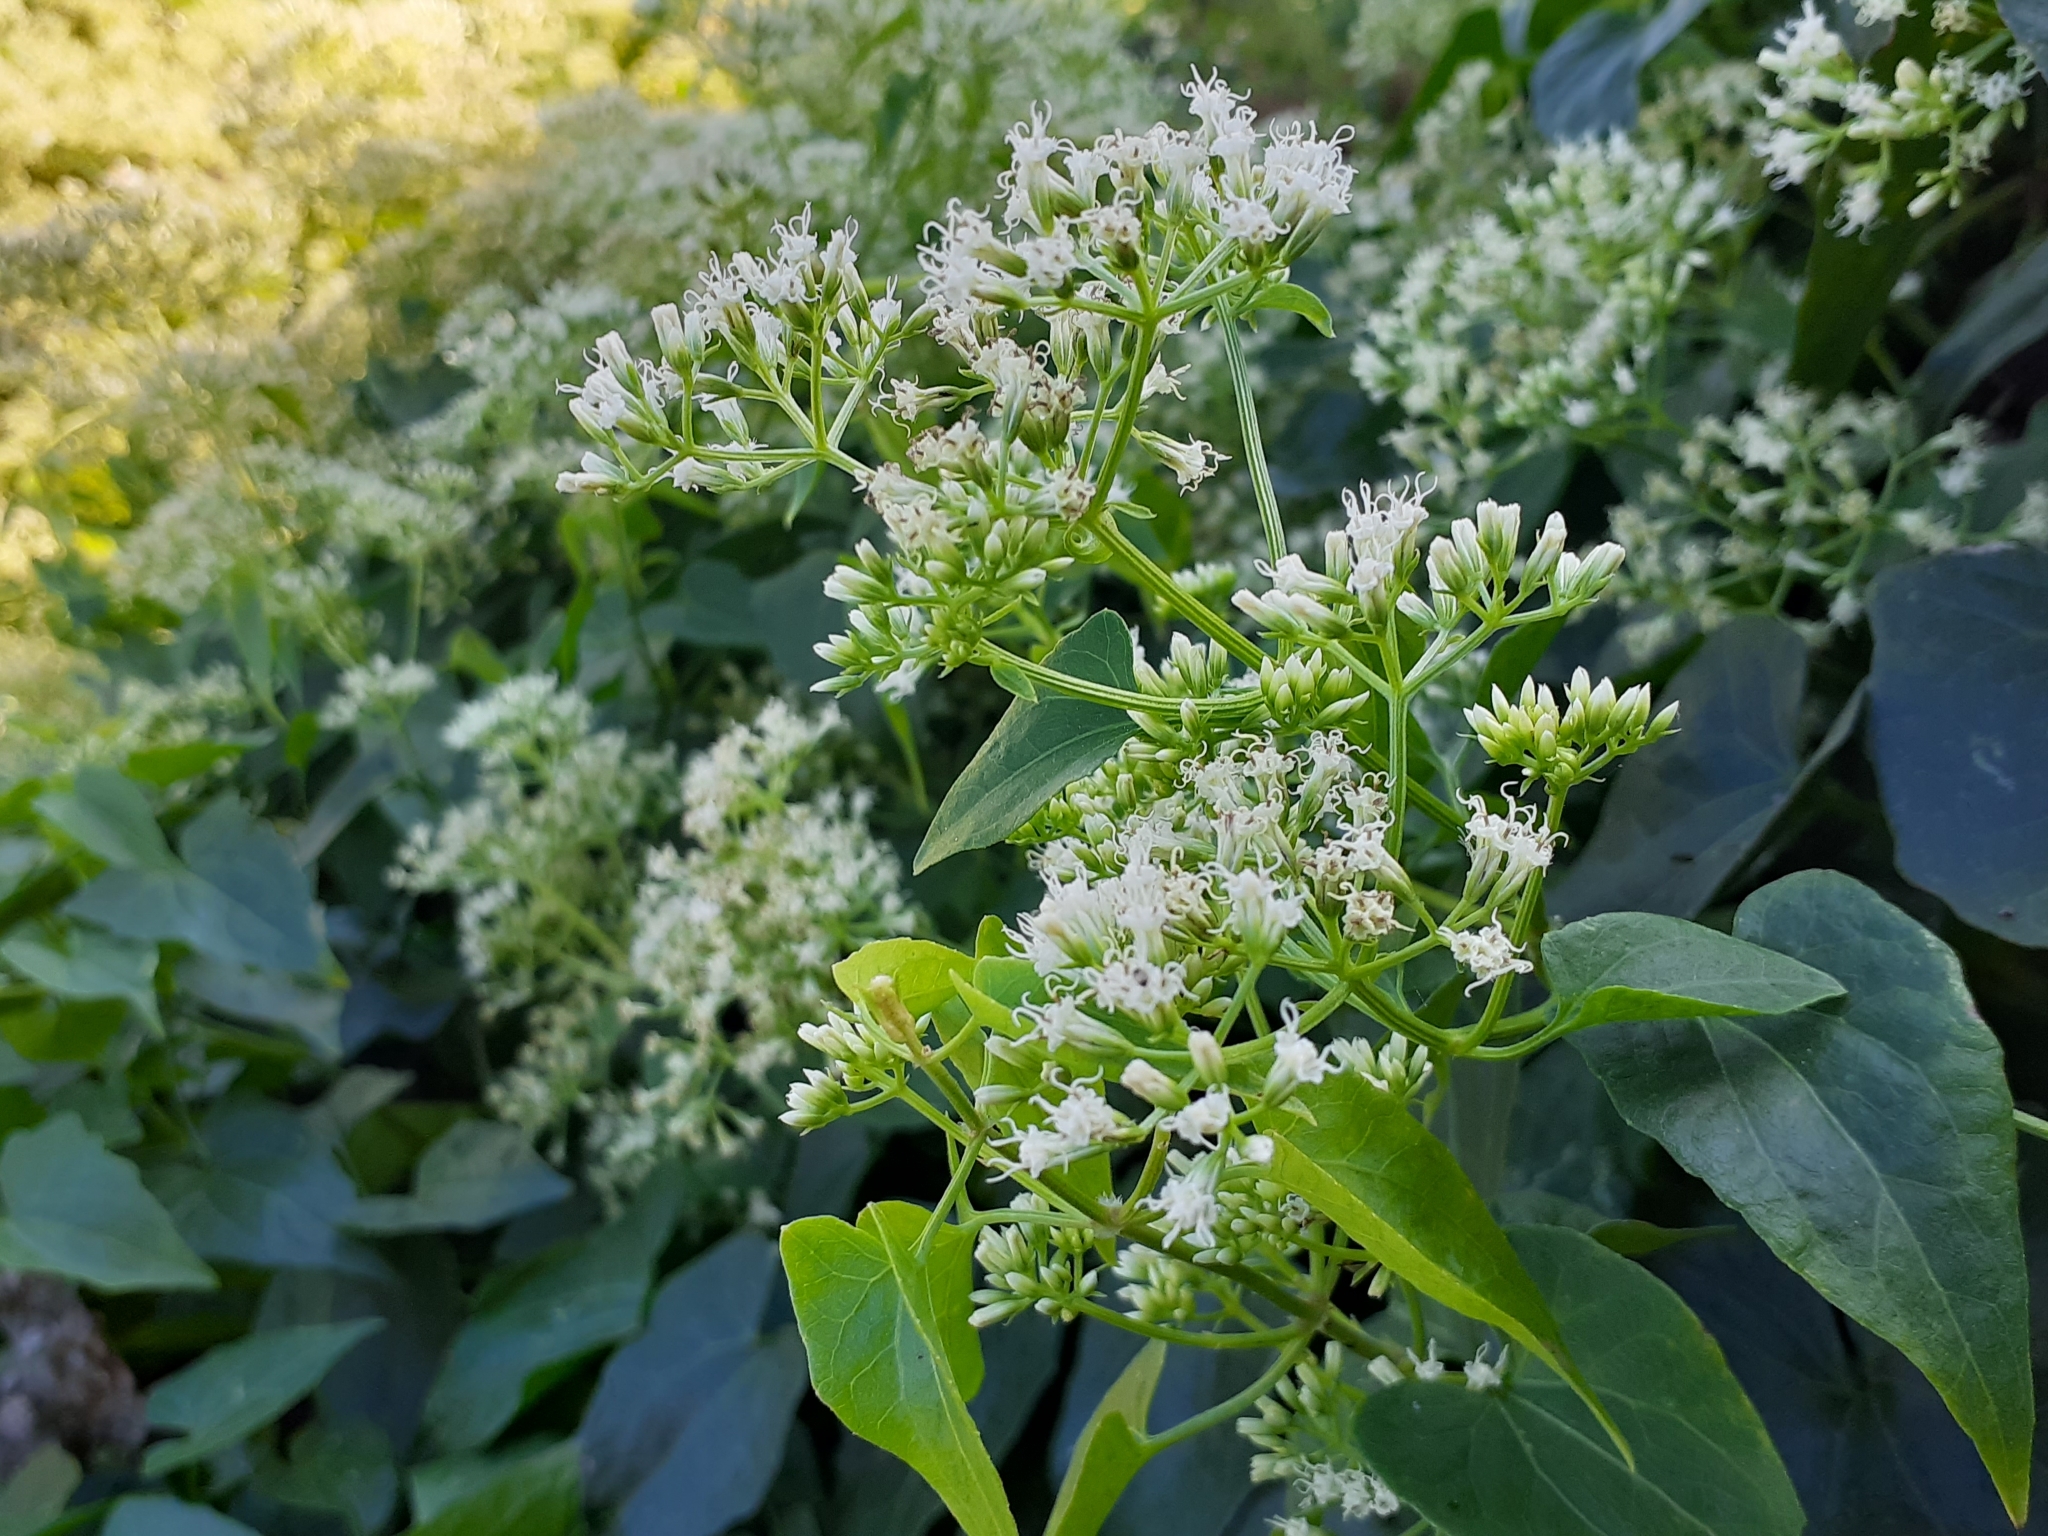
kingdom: Plantae
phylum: Tracheophyta
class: Magnoliopsida
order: Asterales
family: Asteraceae
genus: Mikania
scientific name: Mikania micrantha
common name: Mile-a-minute
